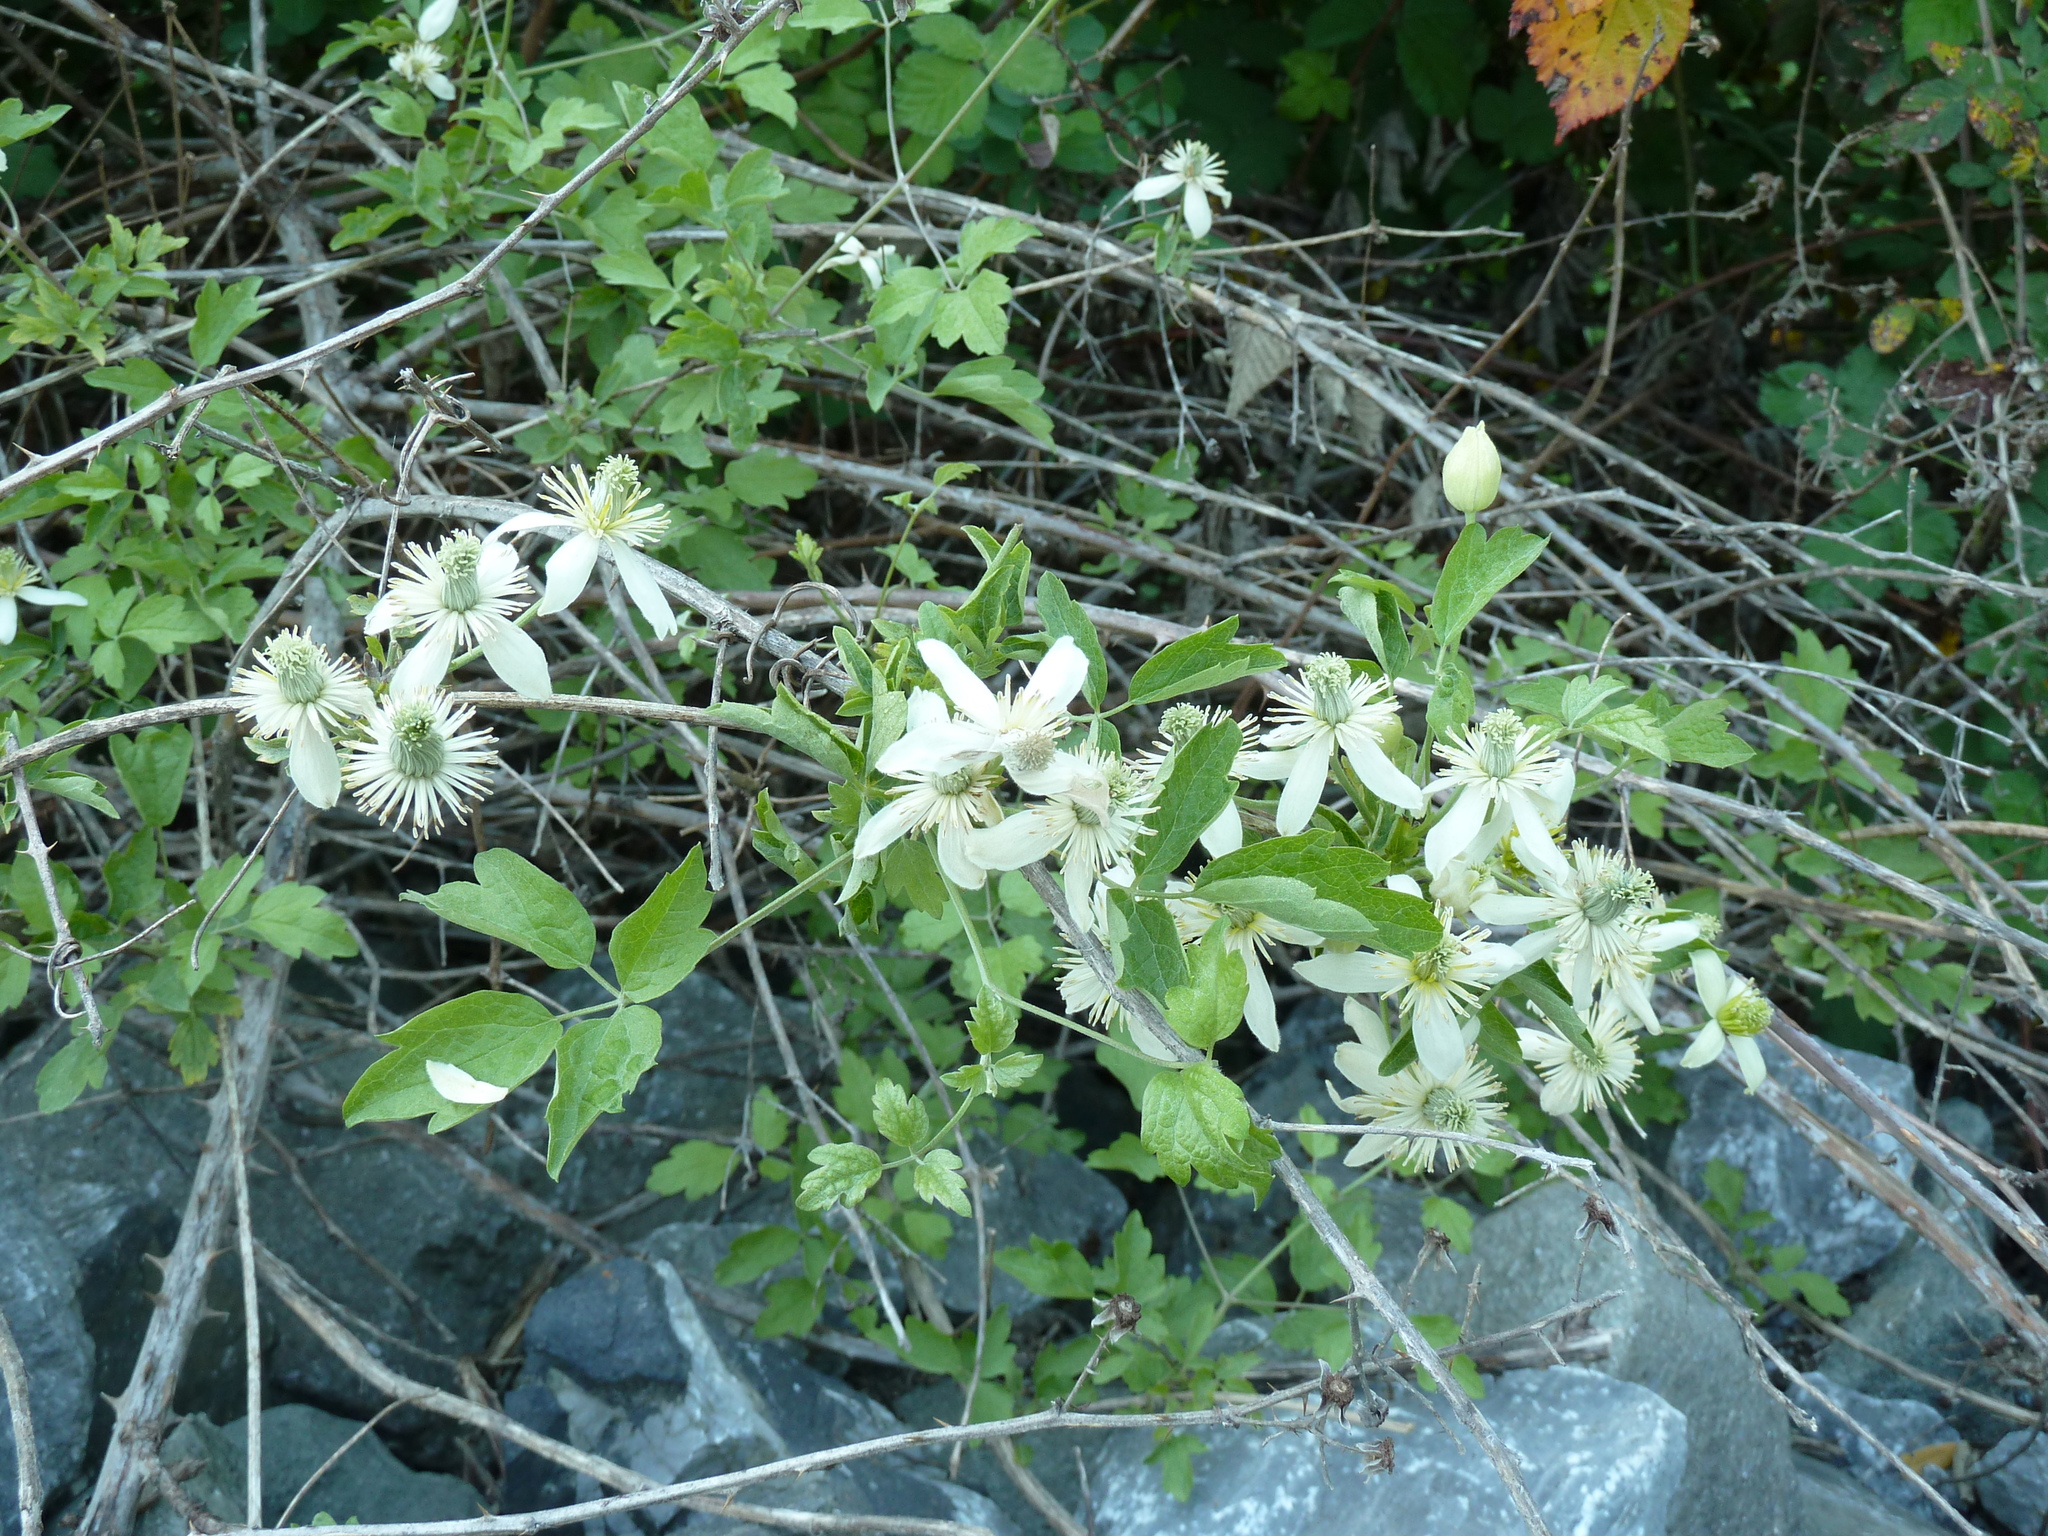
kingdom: Plantae
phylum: Tracheophyta
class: Magnoliopsida
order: Ranunculales
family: Ranunculaceae
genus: Clematis
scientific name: Clematis lasiantha
